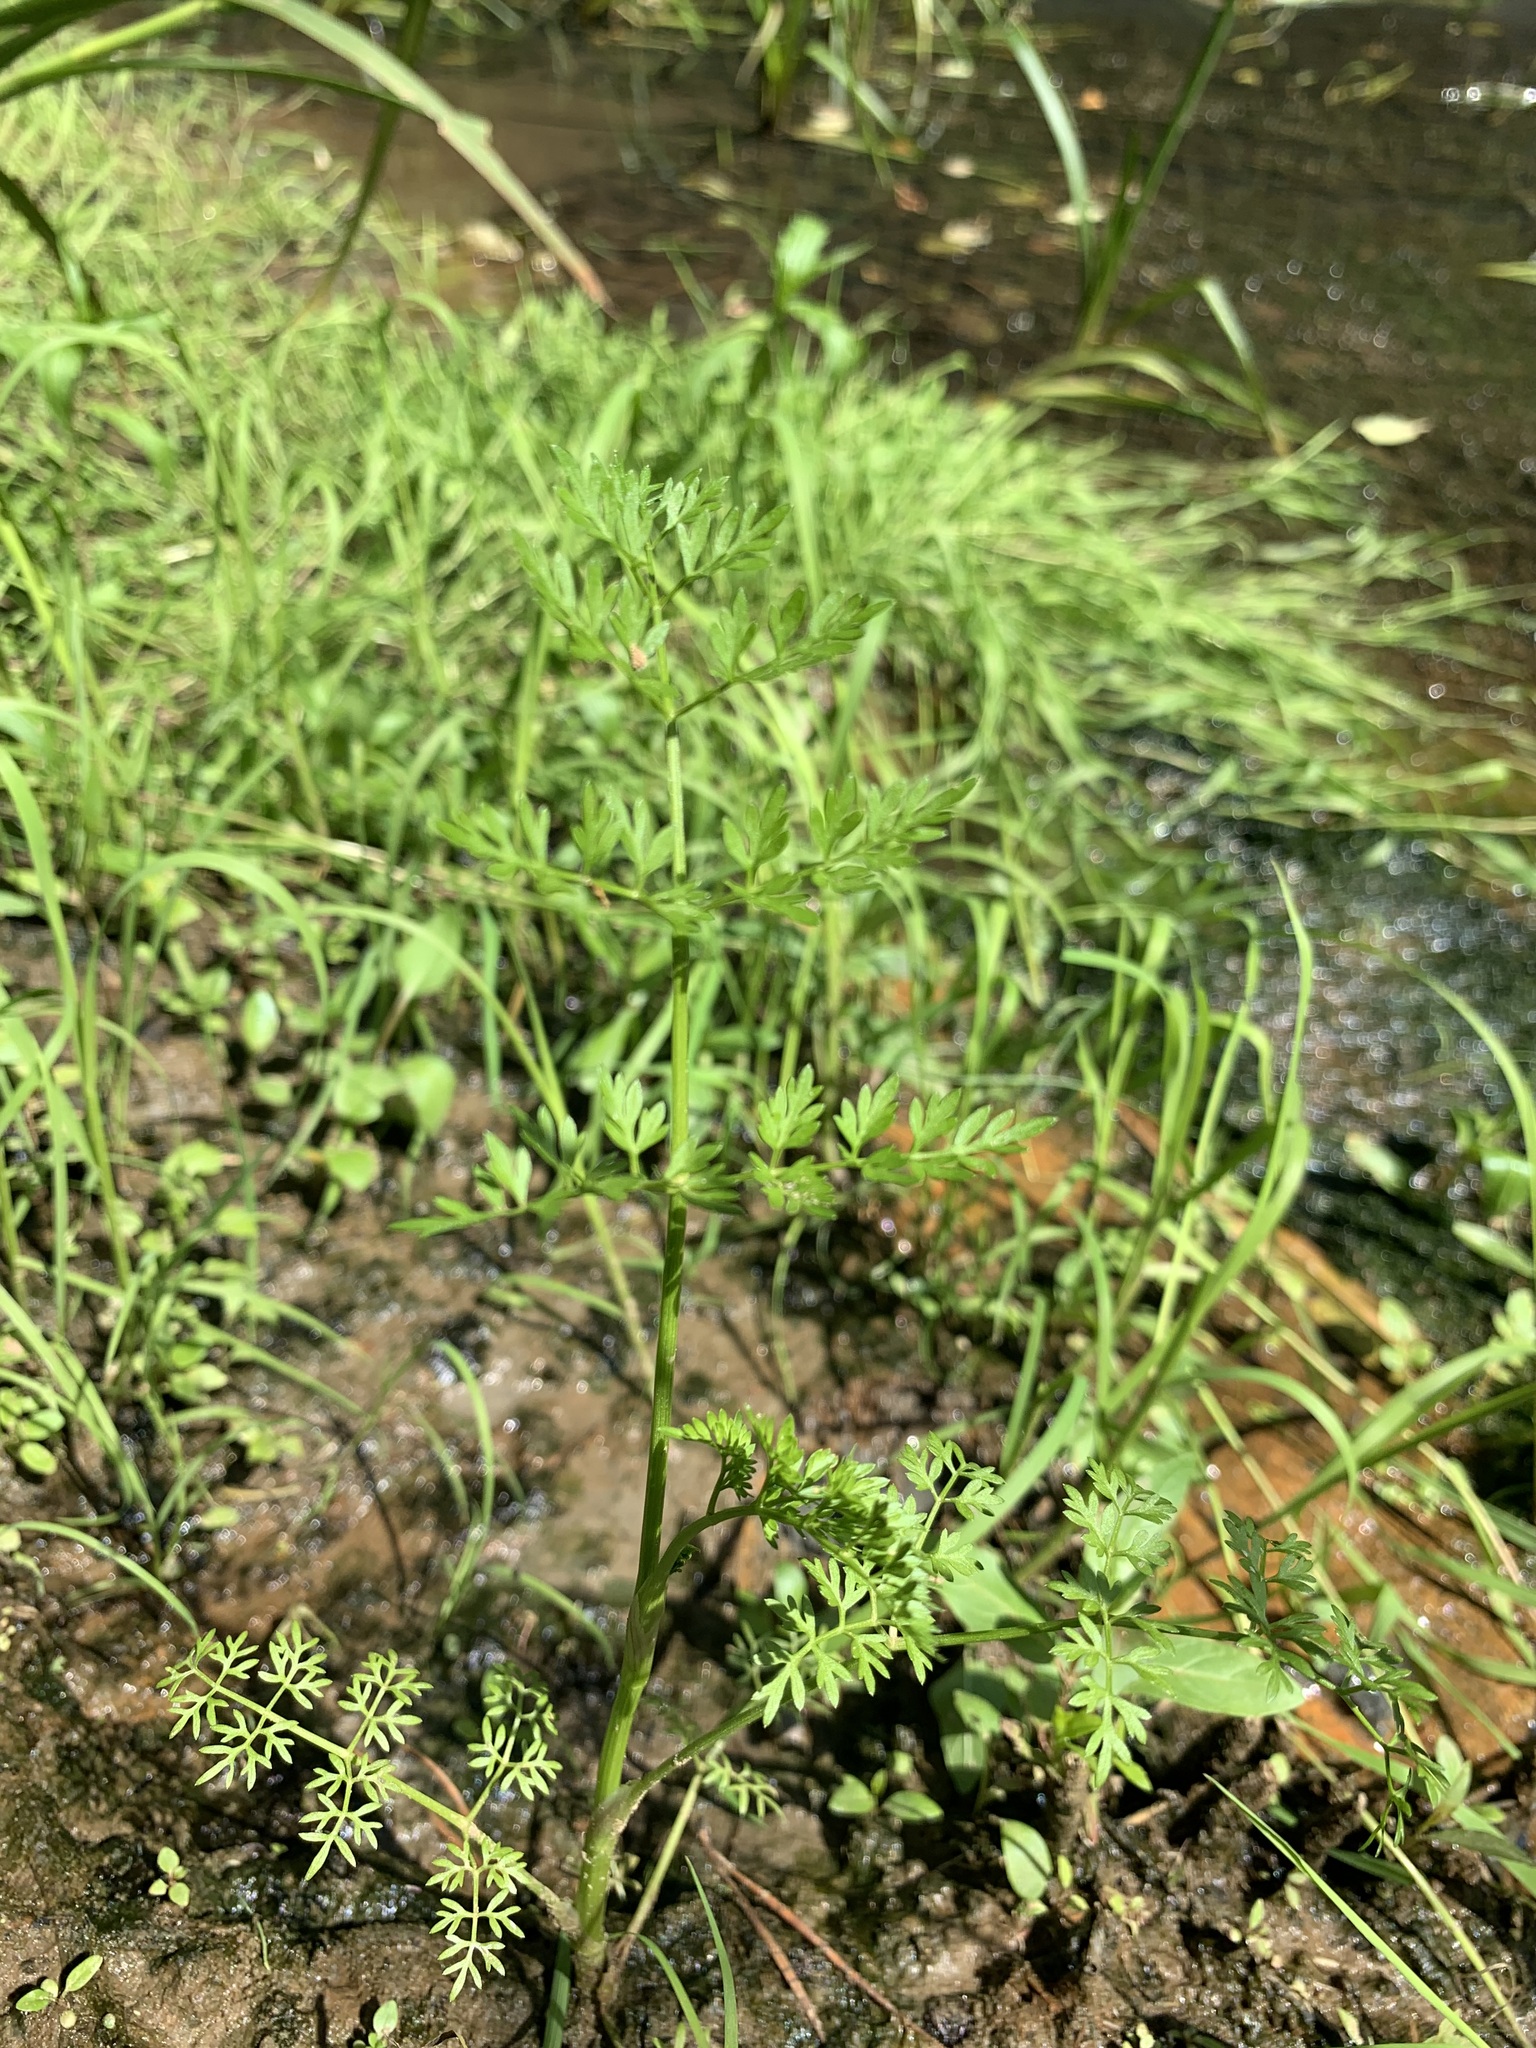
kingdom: Plantae
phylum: Tracheophyta
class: Magnoliopsida
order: Apiales
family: Apiaceae
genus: Oenanthe
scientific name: Oenanthe aquatica
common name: Fine-leaved water-dropwort
